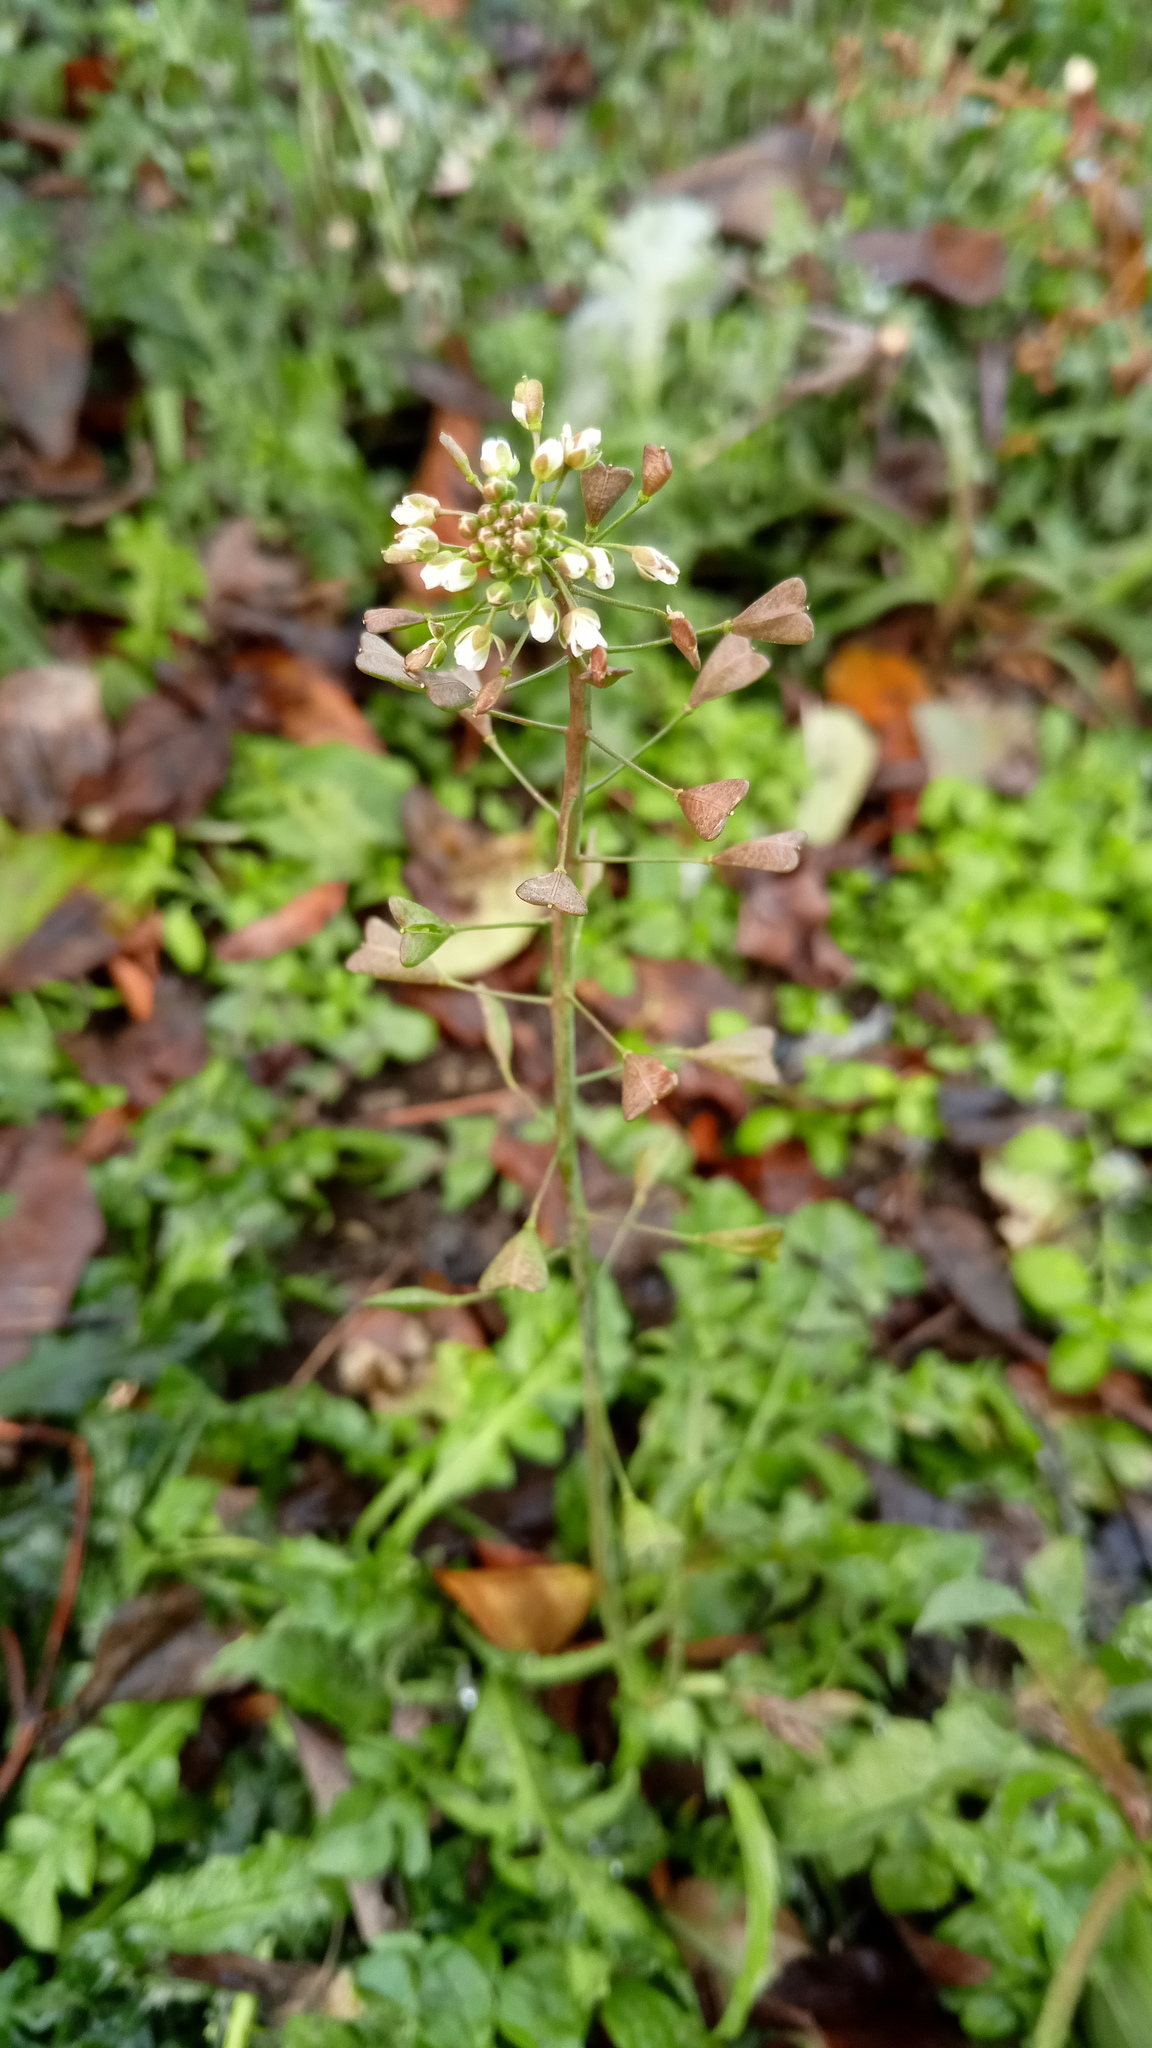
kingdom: Plantae
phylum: Tracheophyta
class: Magnoliopsida
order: Brassicales
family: Brassicaceae
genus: Capsella
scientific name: Capsella bursa-pastoris
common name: Shepherd's purse
